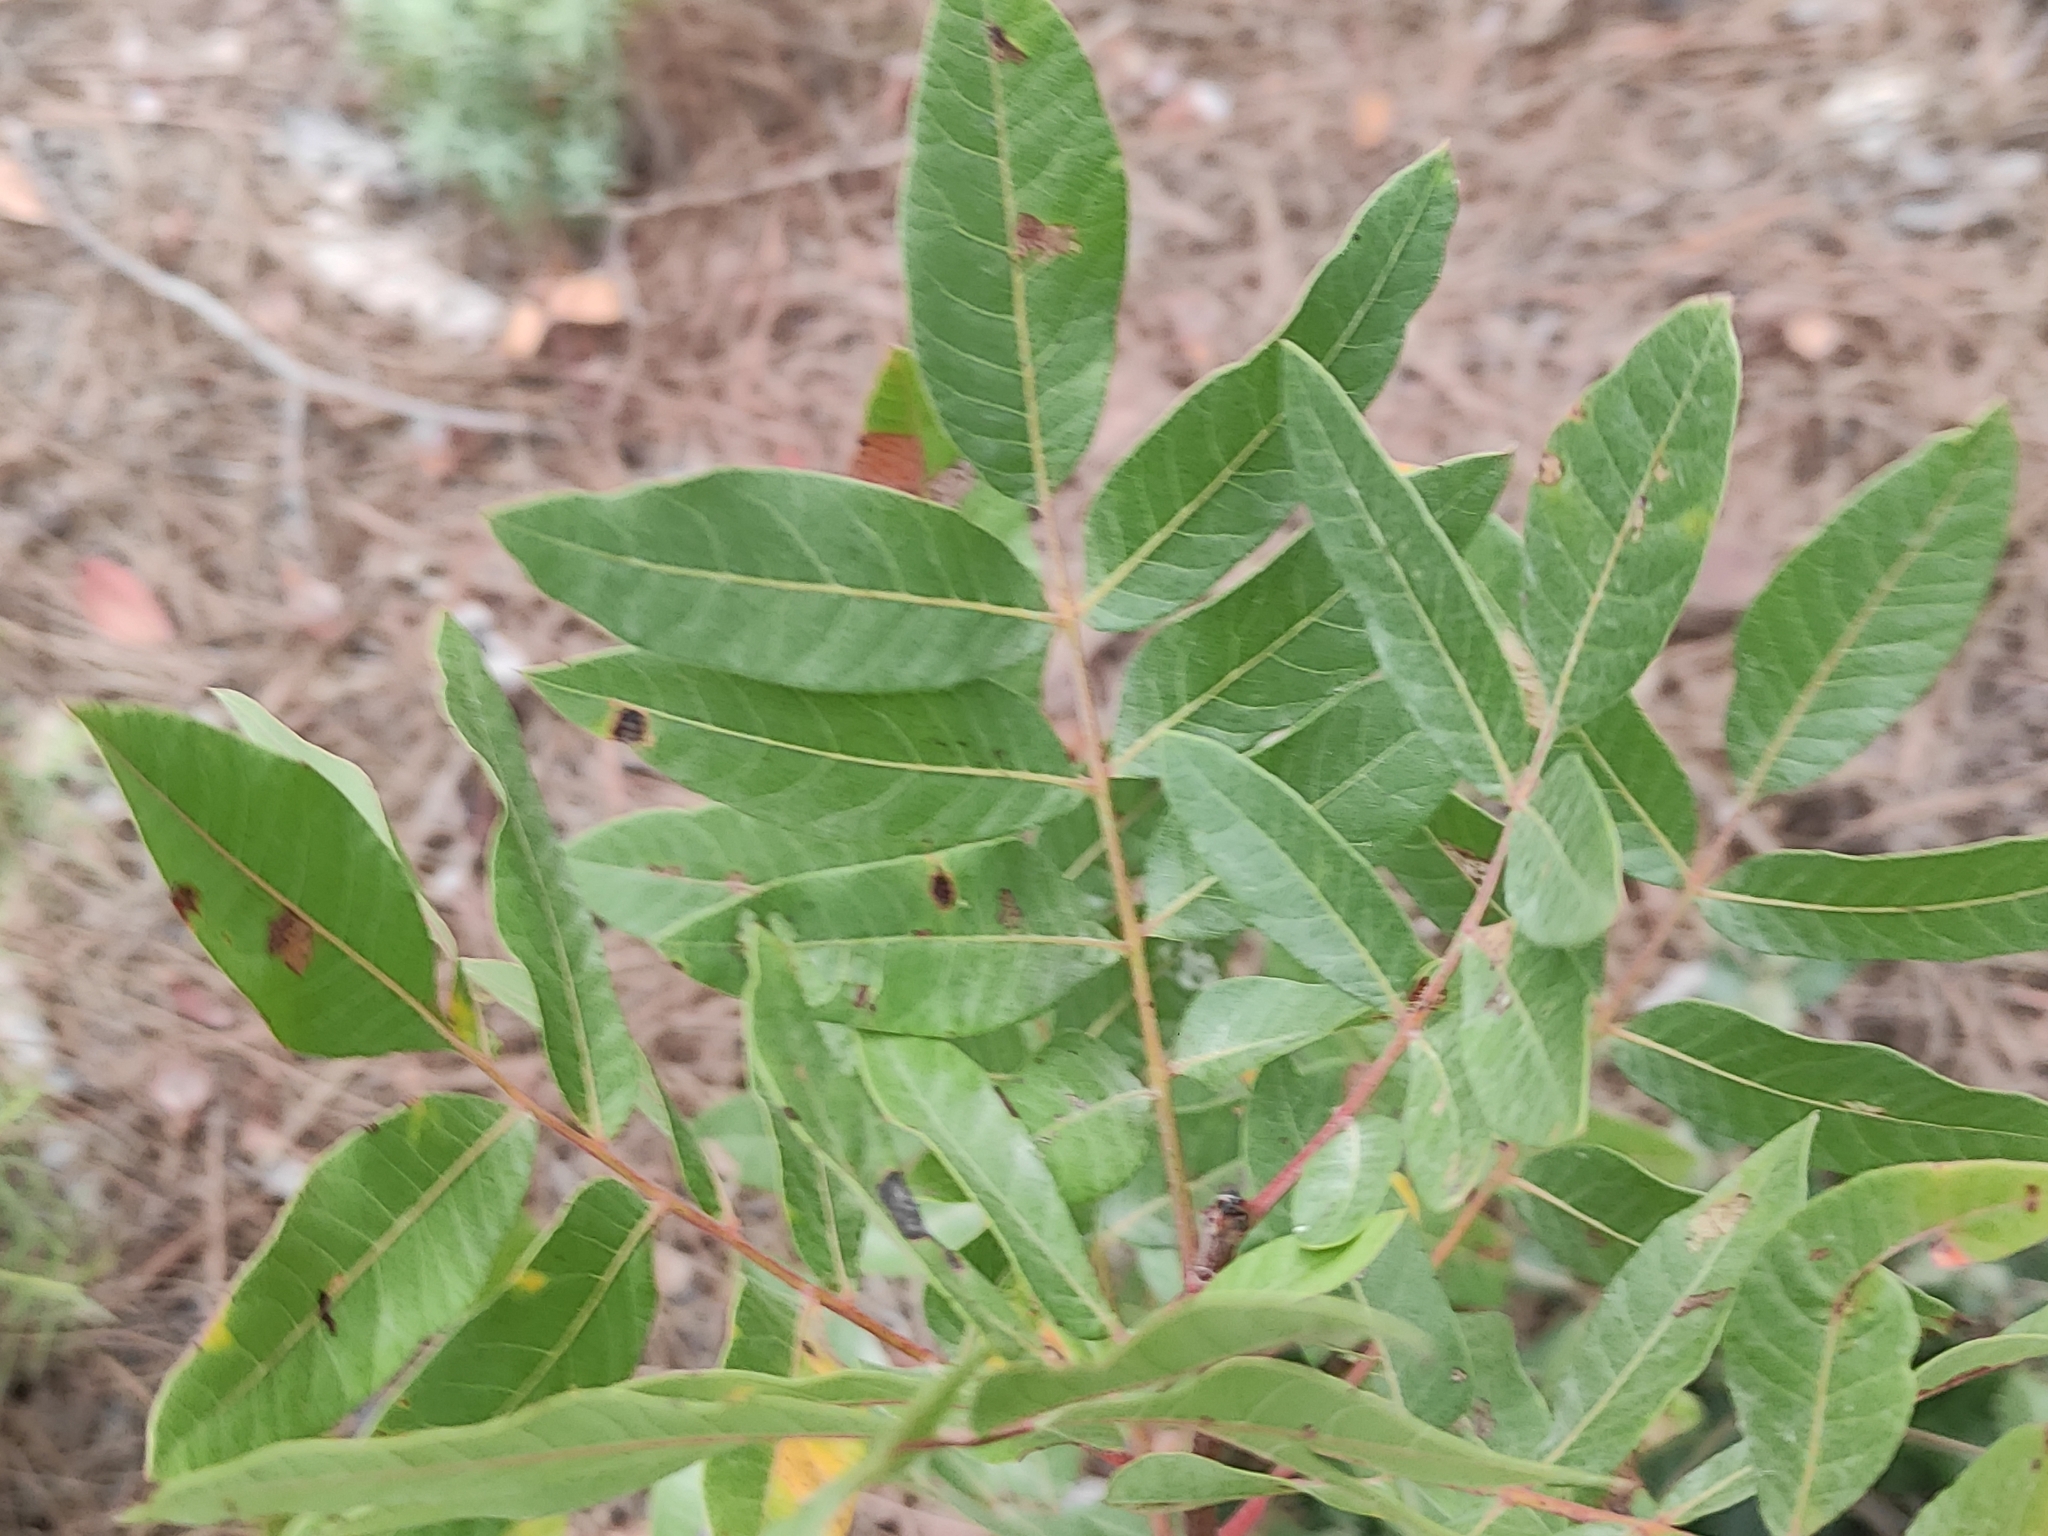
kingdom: Plantae
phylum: Tracheophyta
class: Magnoliopsida
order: Sapindales
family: Anacardiaceae
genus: Pistacia
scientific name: Pistacia terebinthus
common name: Terebinth
